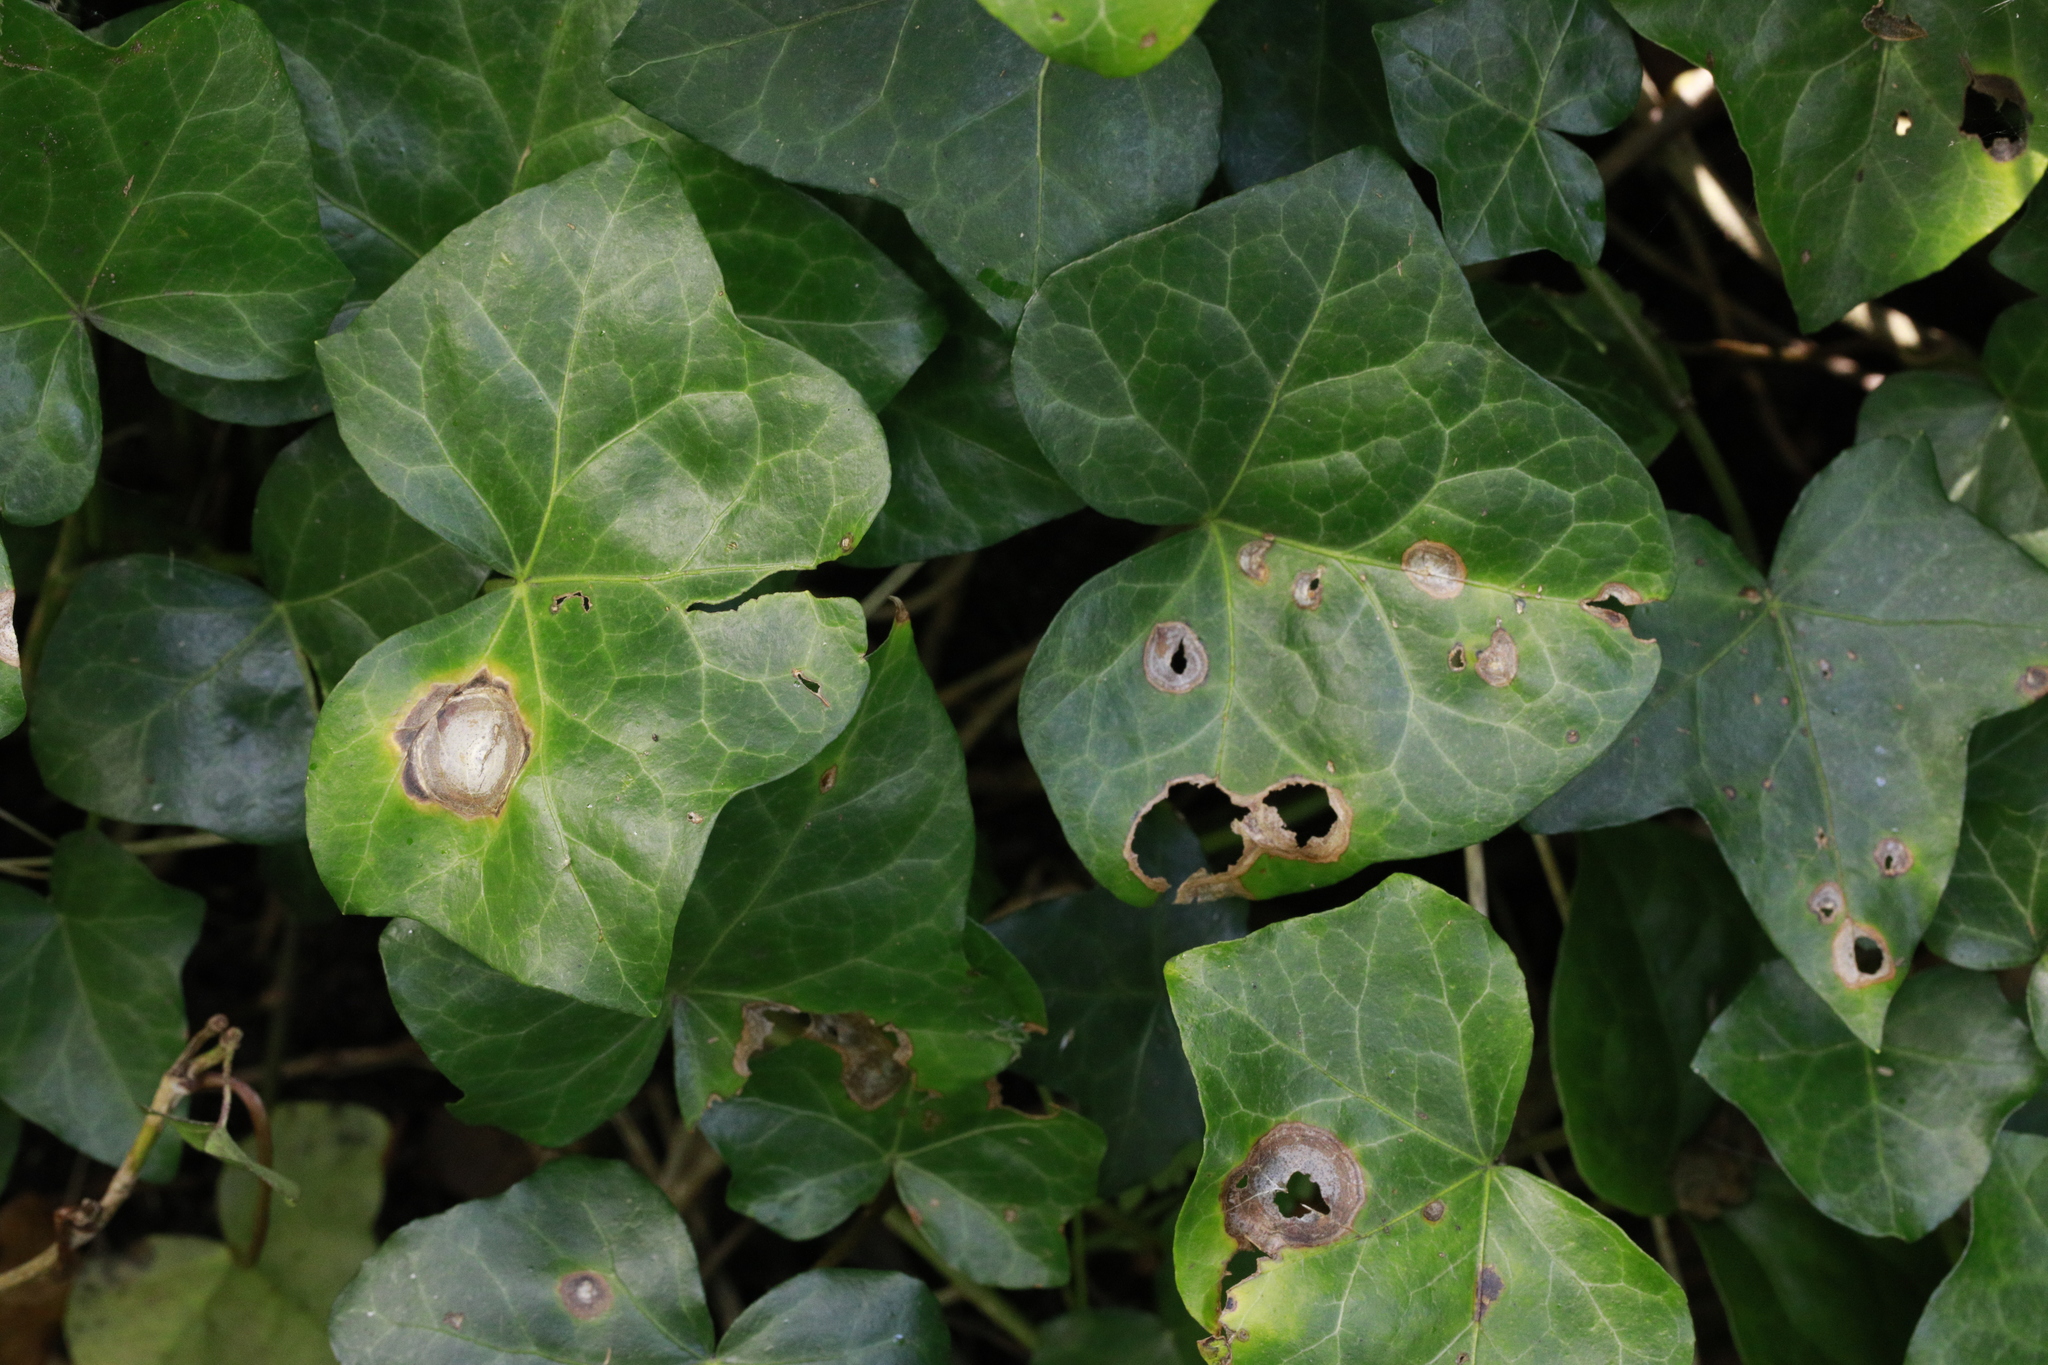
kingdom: Fungi
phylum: Ascomycota
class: Dothideomycetes
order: Pleosporales
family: Didymellaceae
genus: Boeremia
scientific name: Boeremia hedericola
